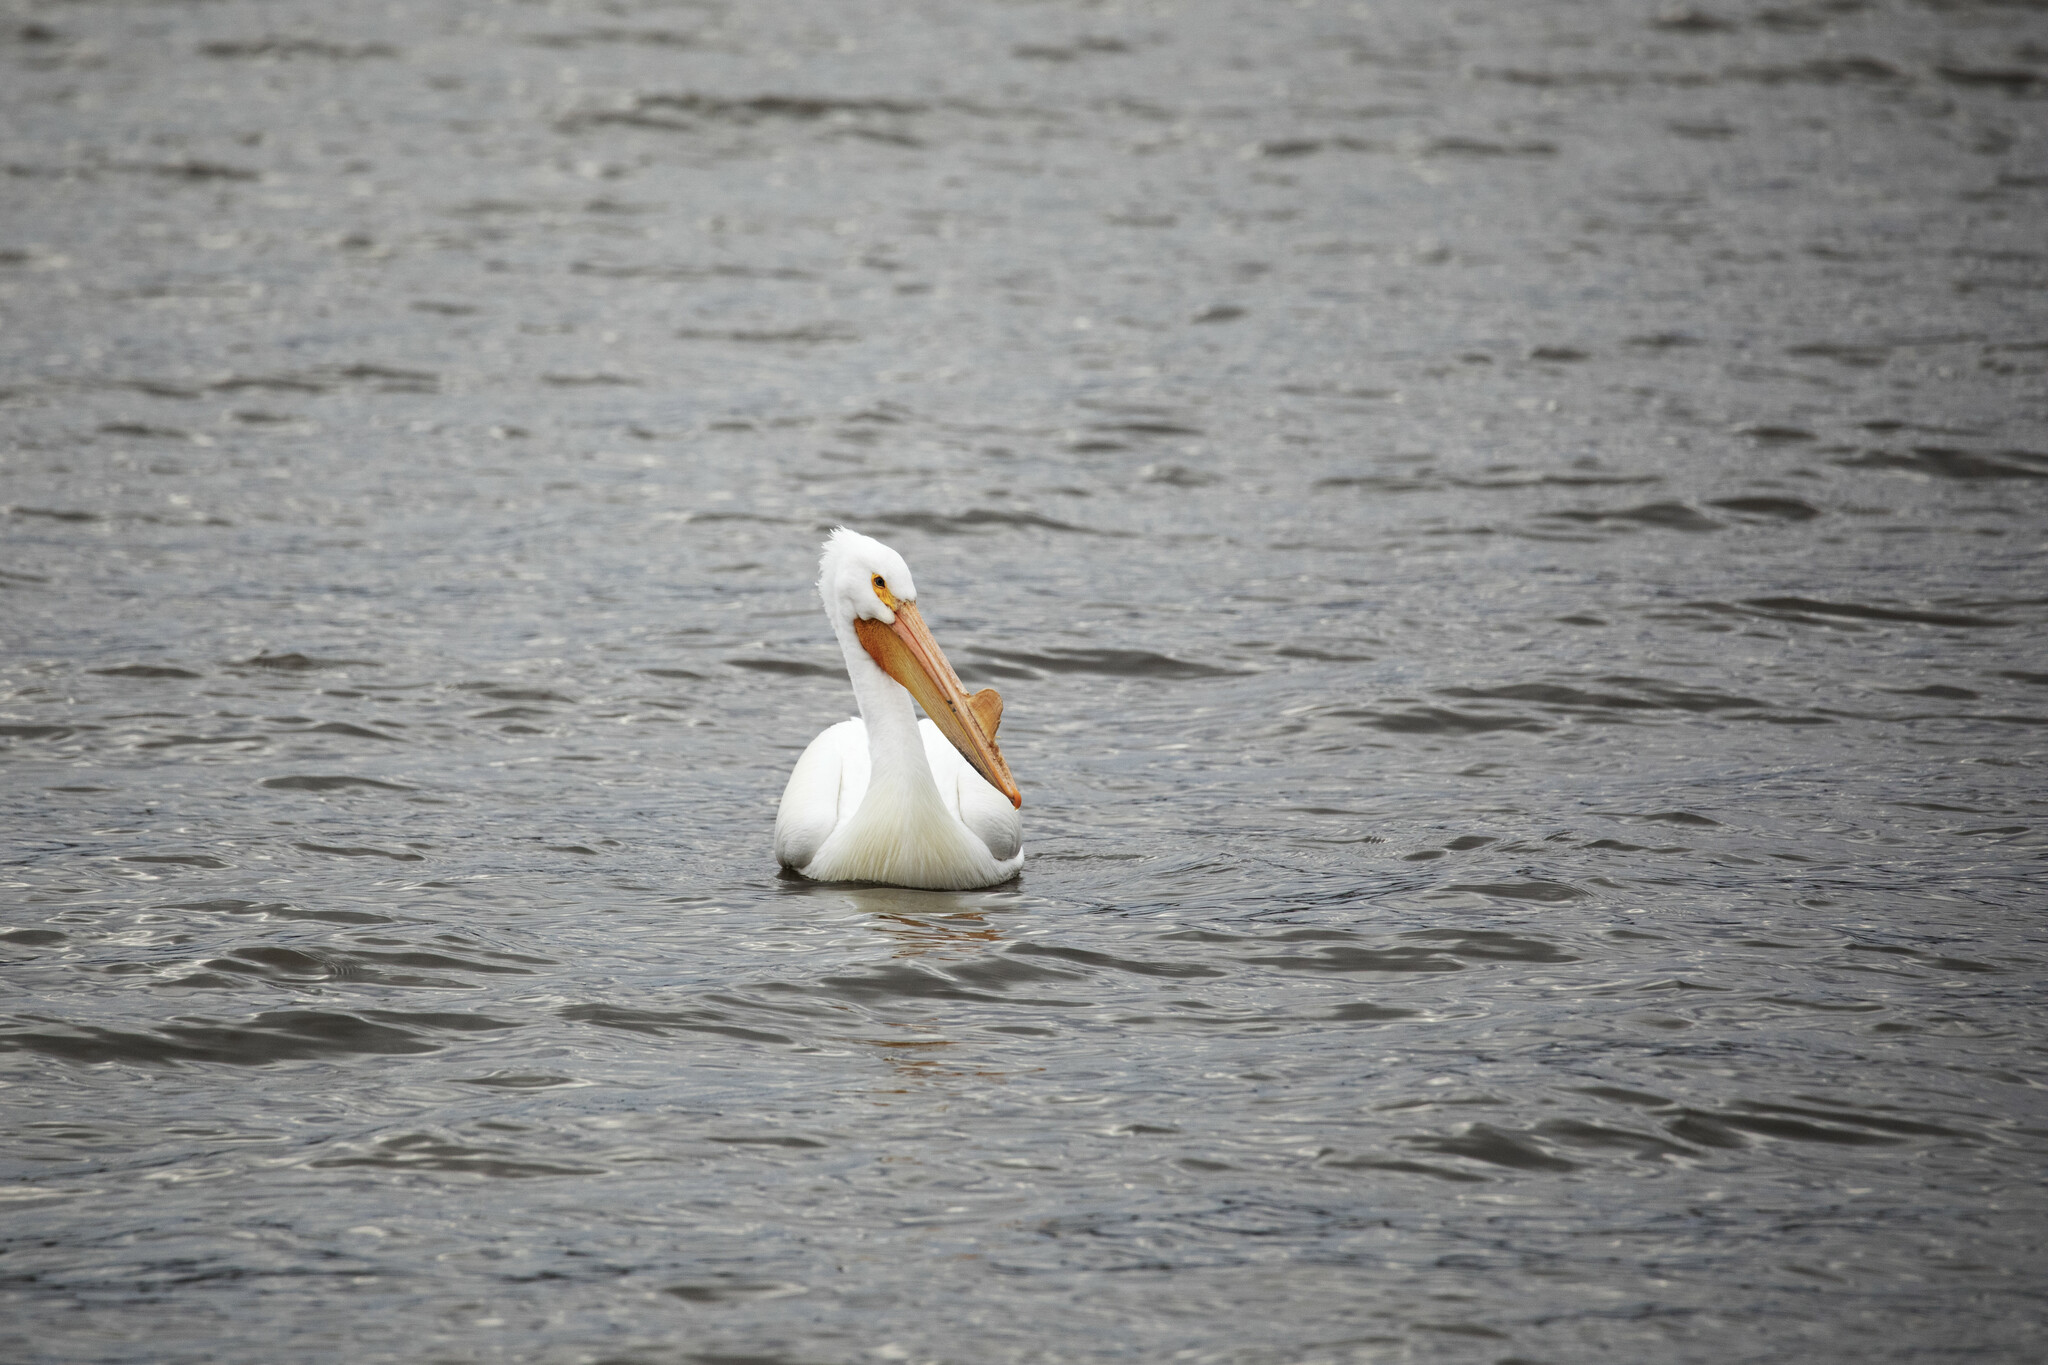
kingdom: Animalia
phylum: Chordata
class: Aves
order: Pelecaniformes
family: Pelecanidae
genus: Pelecanus
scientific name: Pelecanus erythrorhynchos
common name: American white pelican
